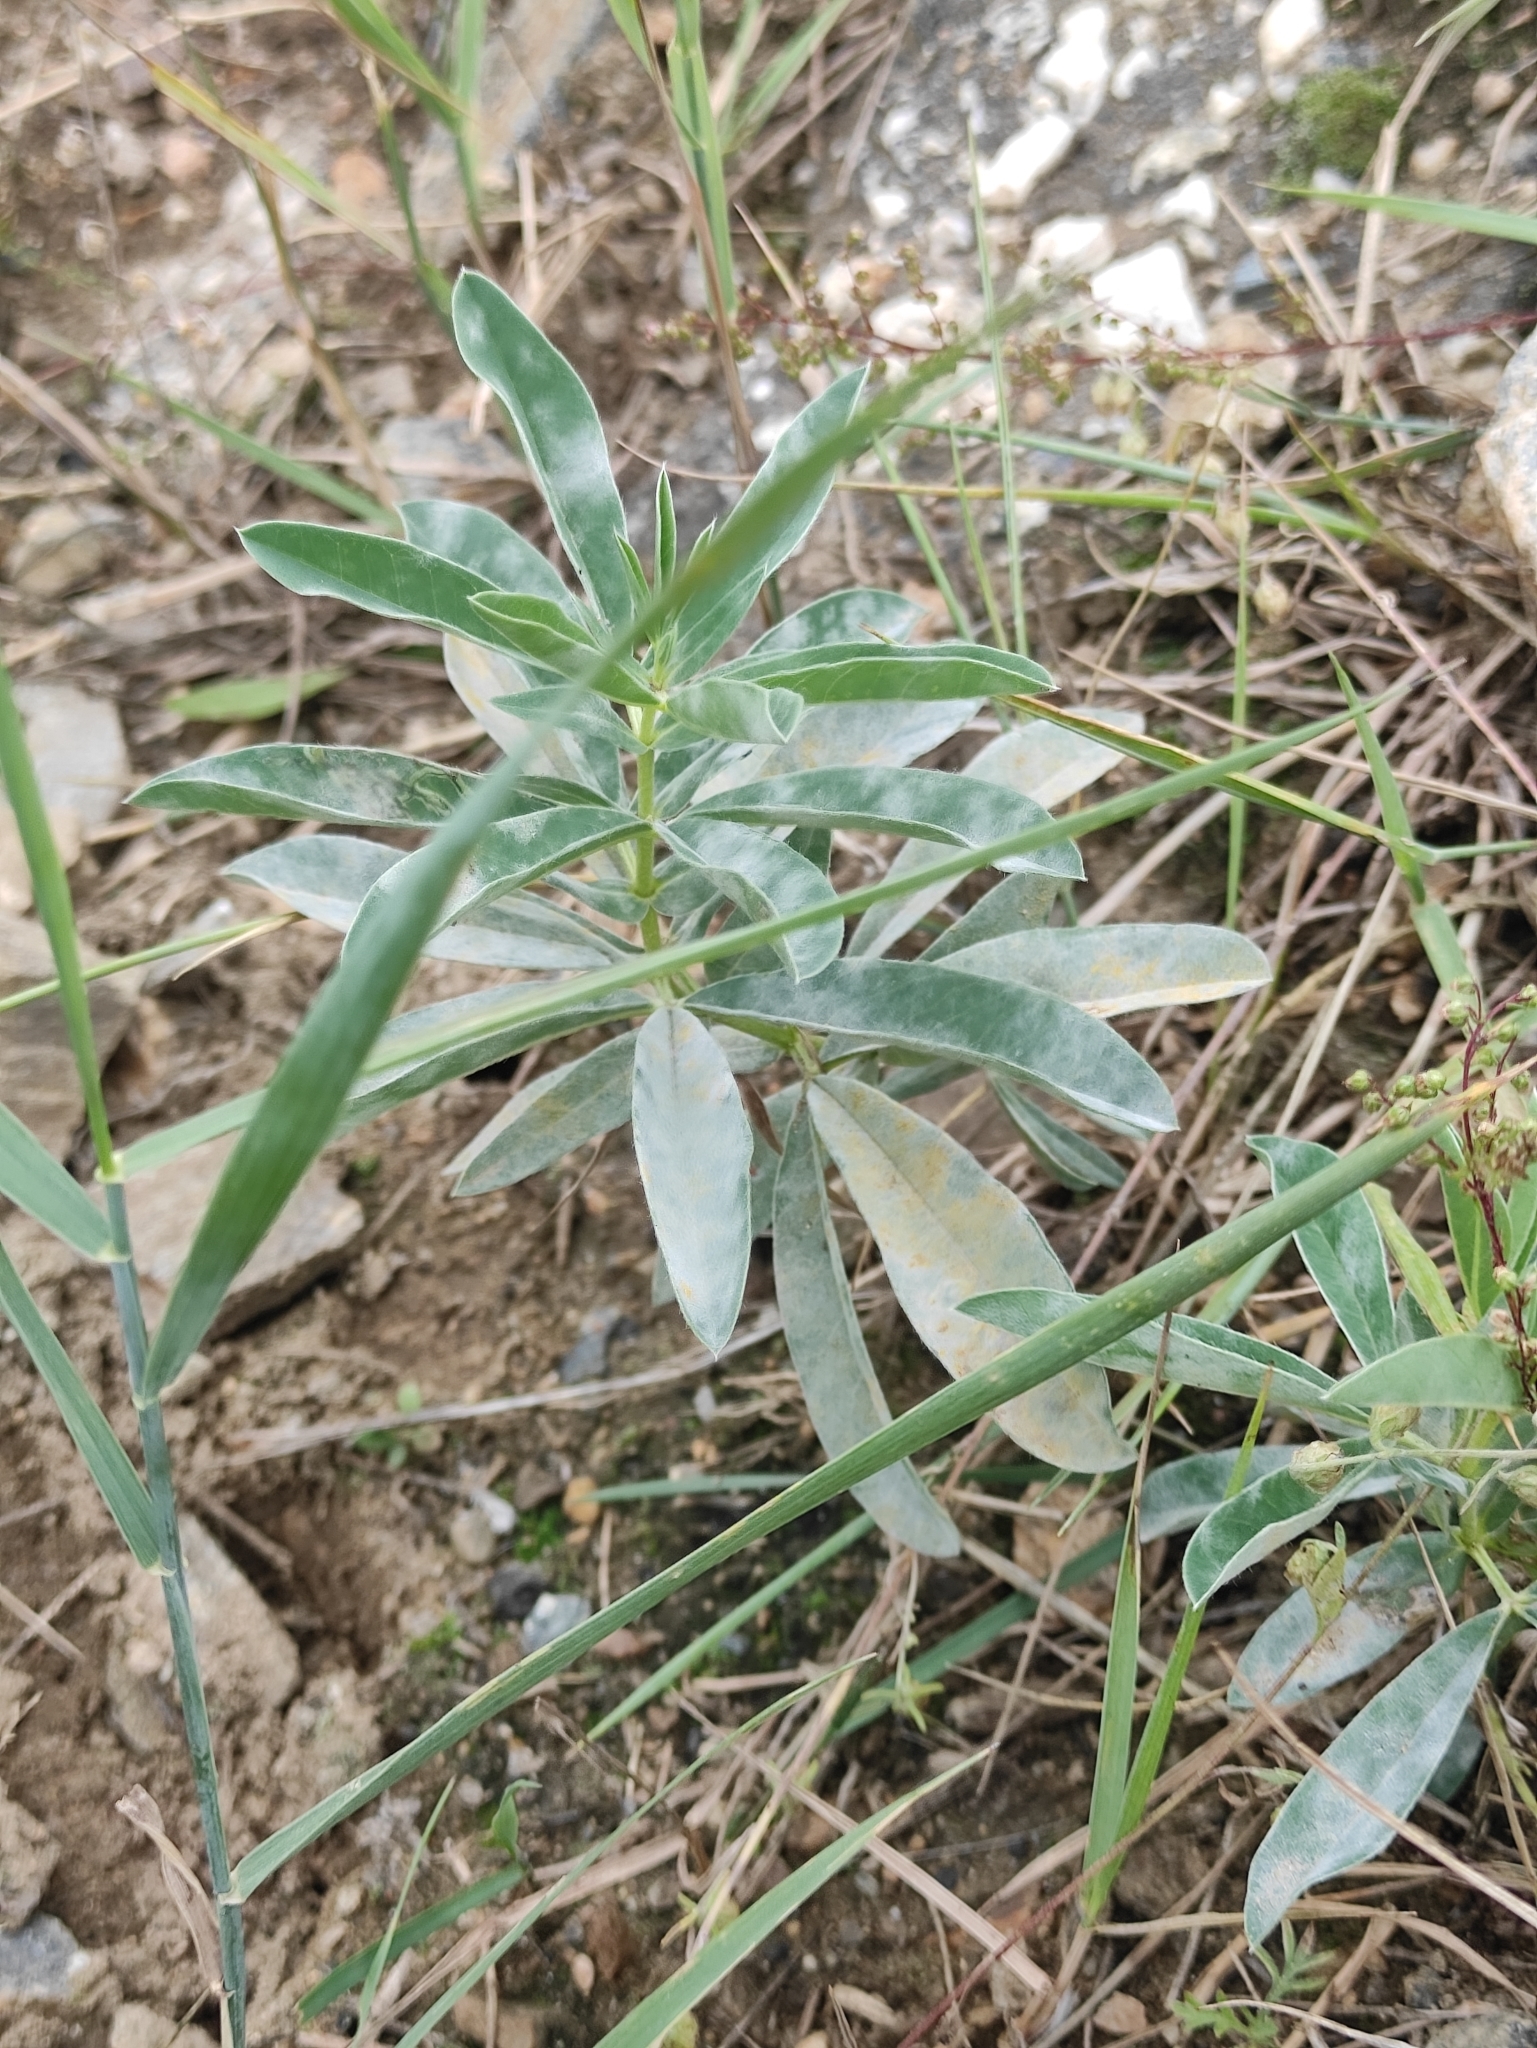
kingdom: Plantae
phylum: Tracheophyta
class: Magnoliopsida
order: Fabales
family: Fabaceae
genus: Thermopsis
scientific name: Thermopsis lanceolata
